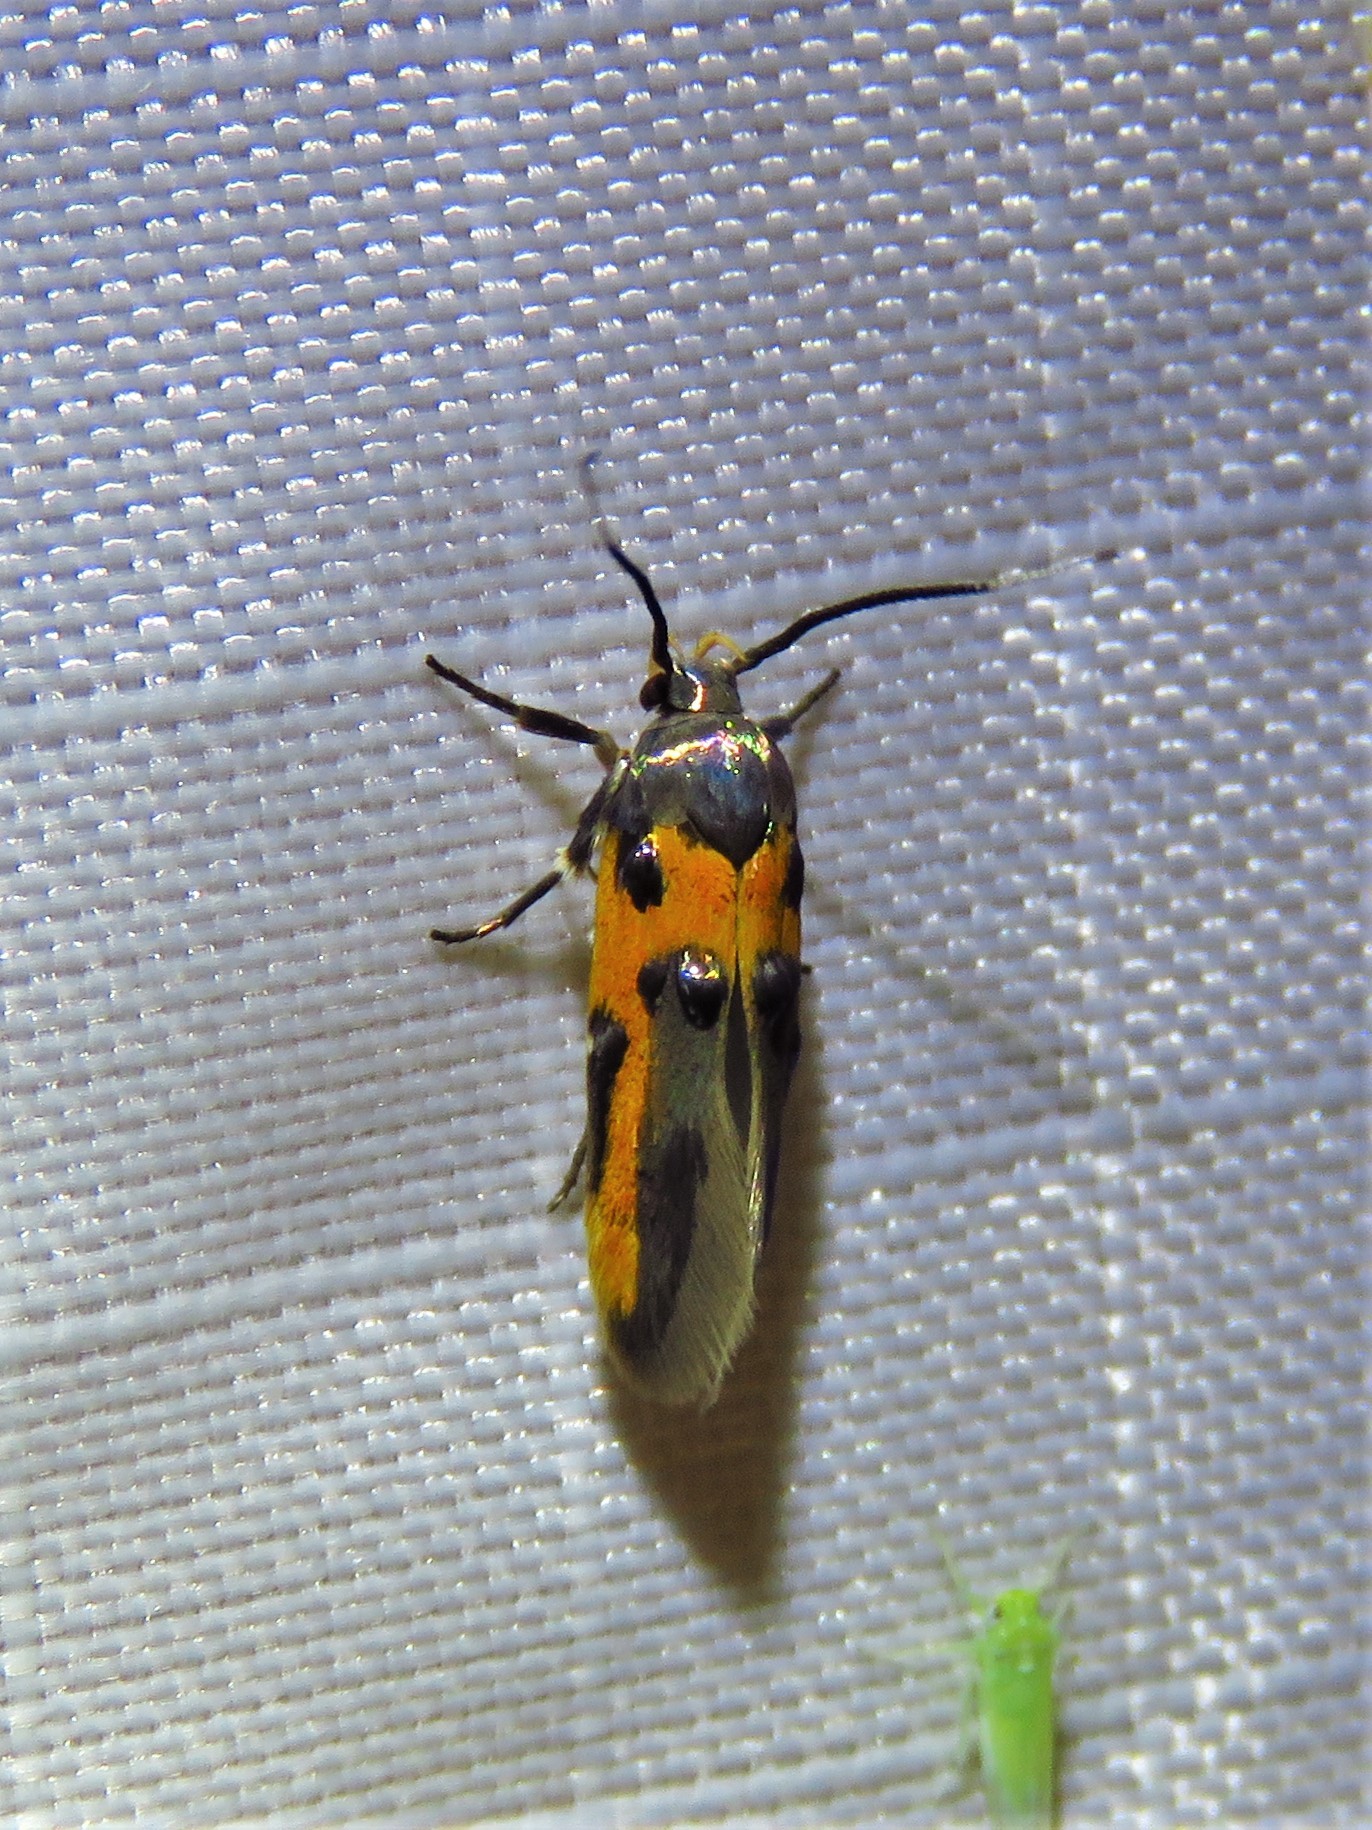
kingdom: Animalia
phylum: Arthropoda
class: Insecta
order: Lepidoptera
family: Cosmopterigidae
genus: Euclemensia
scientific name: Euclemensia bassettella
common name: Kermes scale moth
